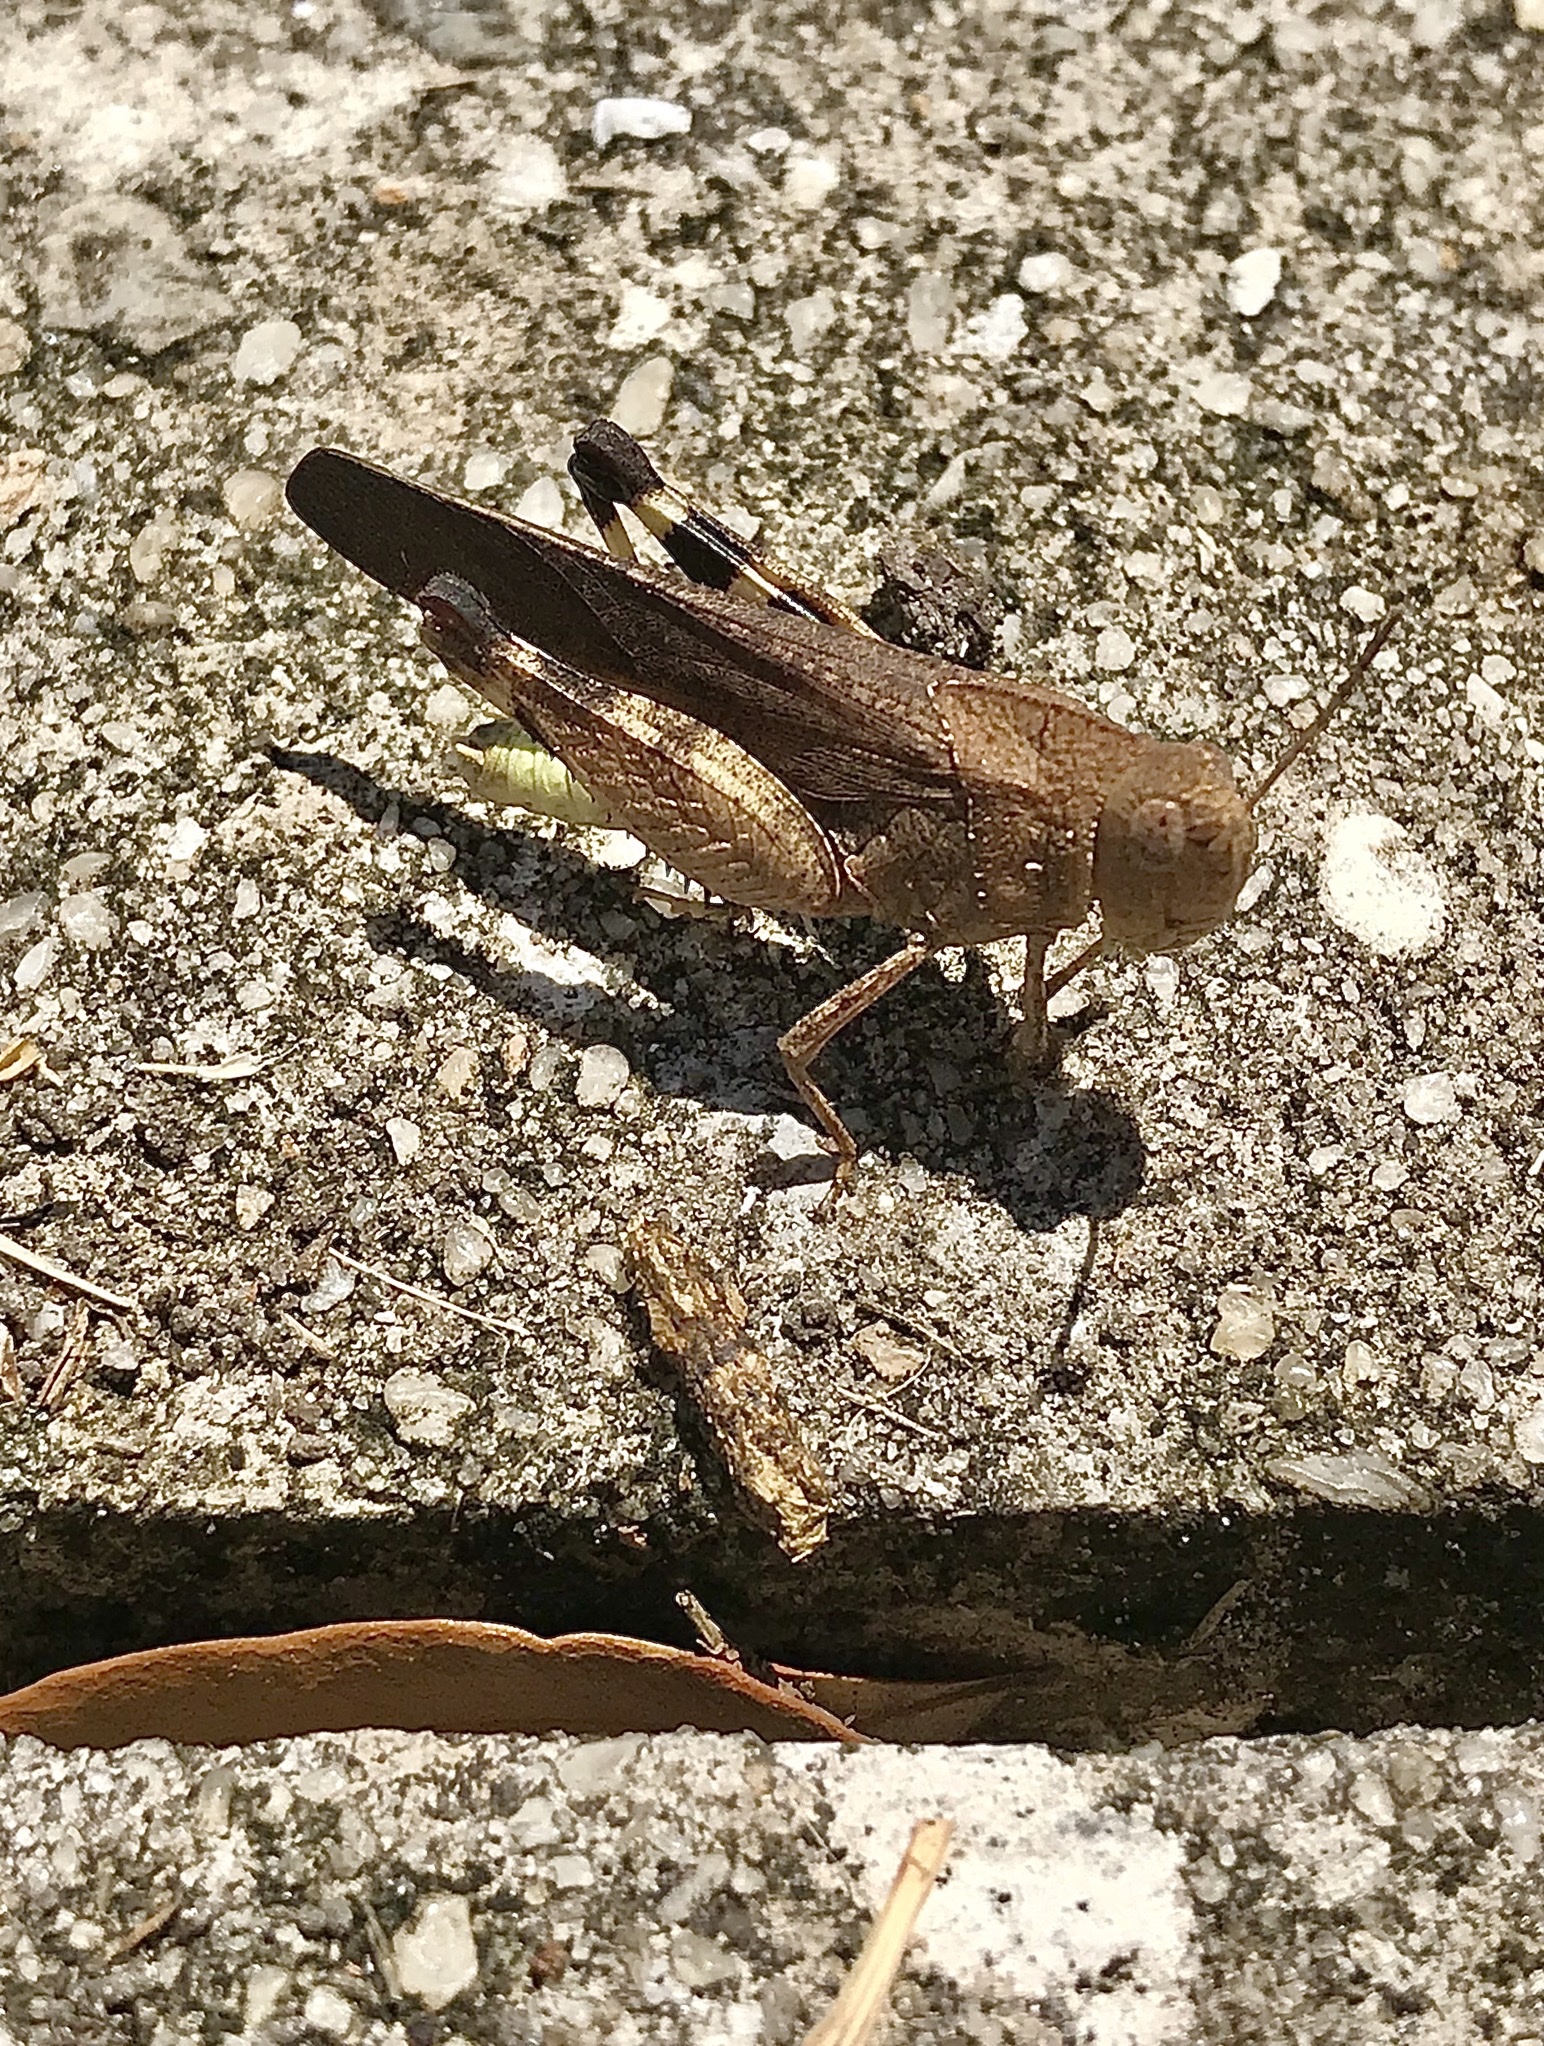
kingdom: Animalia
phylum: Arthropoda
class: Insecta
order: Orthoptera
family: Acrididae
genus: Arphia
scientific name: Arphia granulata
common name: Southern yellow-winged grasshopper
